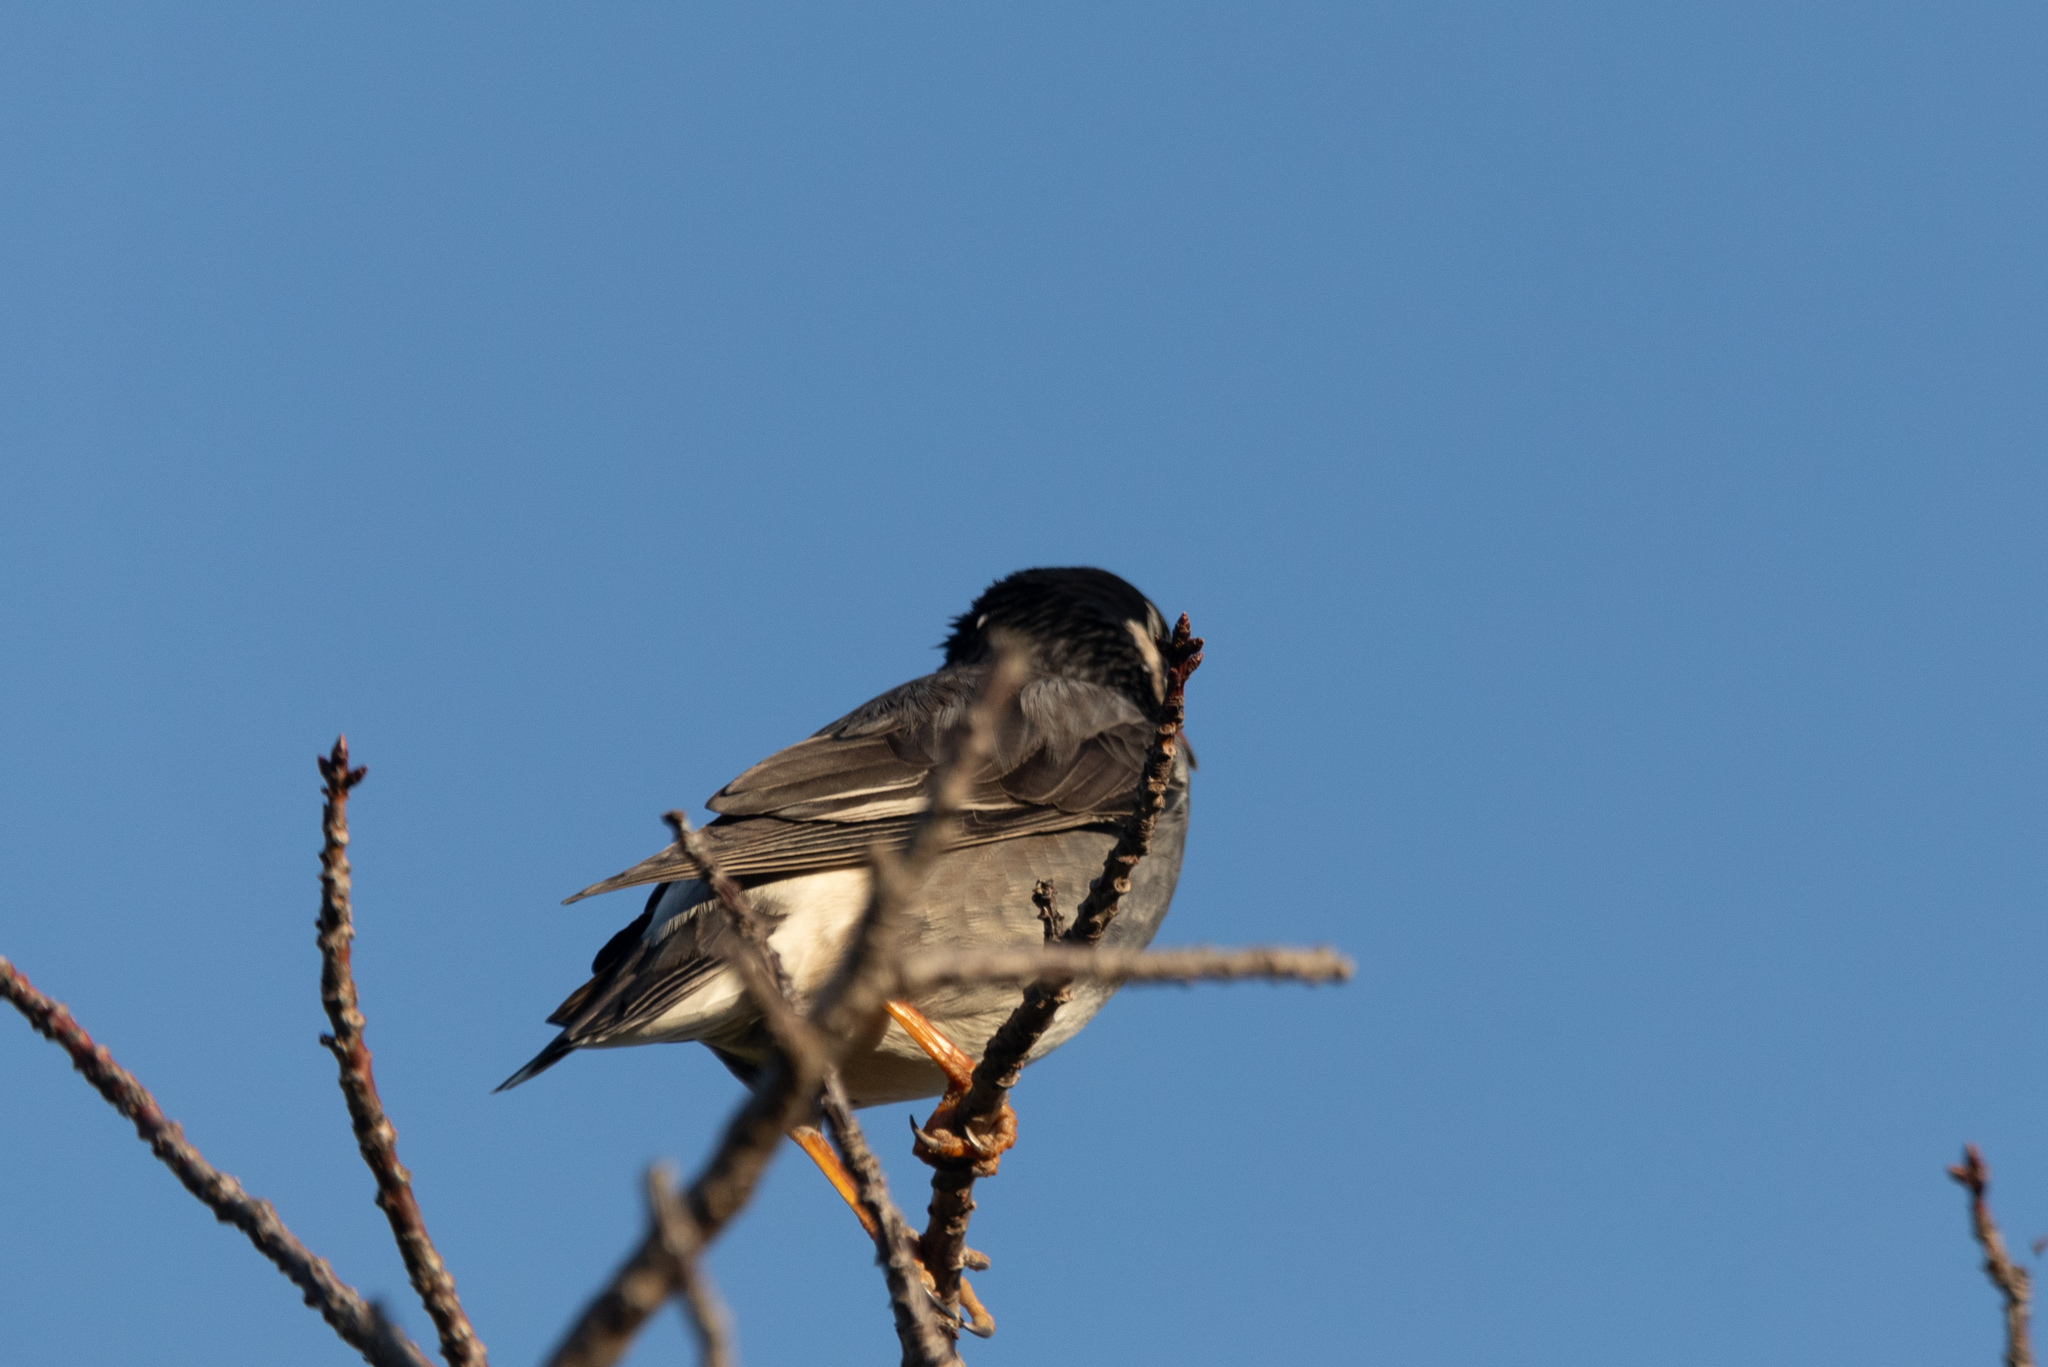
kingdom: Animalia
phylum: Chordata
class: Aves
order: Passeriformes
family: Sturnidae
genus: Spodiopsar
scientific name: Spodiopsar cineraceus
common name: White-cheeked starling
